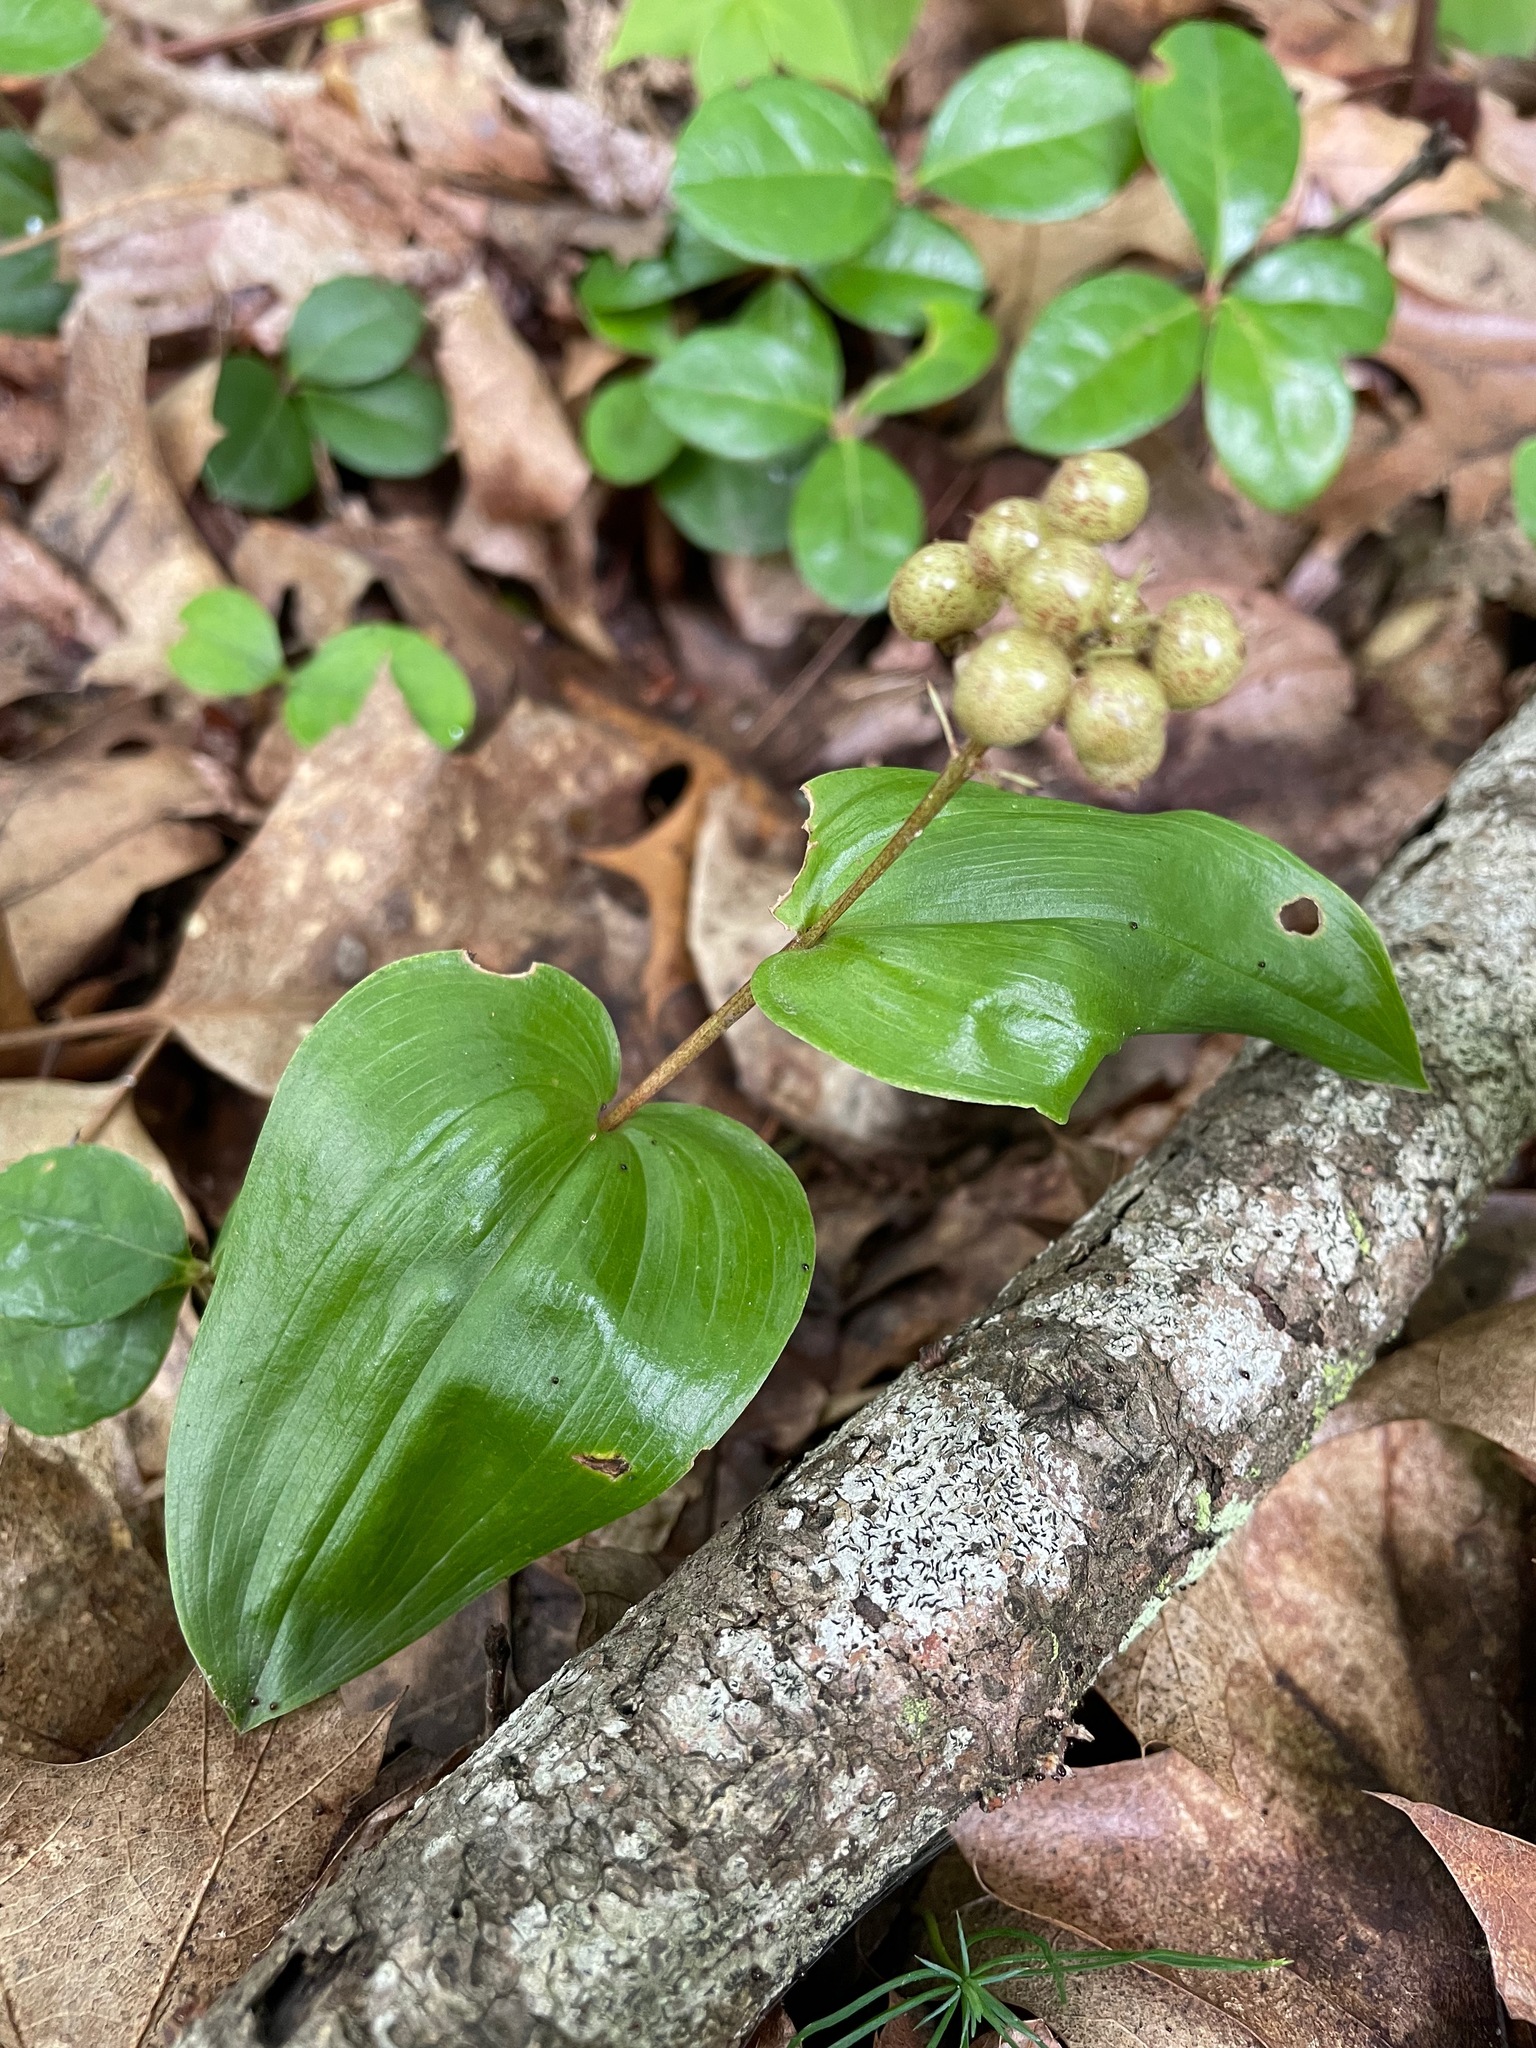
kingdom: Plantae
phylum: Tracheophyta
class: Liliopsida
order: Asparagales
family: Asparagaceae
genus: Maianthemum
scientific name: Maianthemum canadense
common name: False lily-of-the-valley
